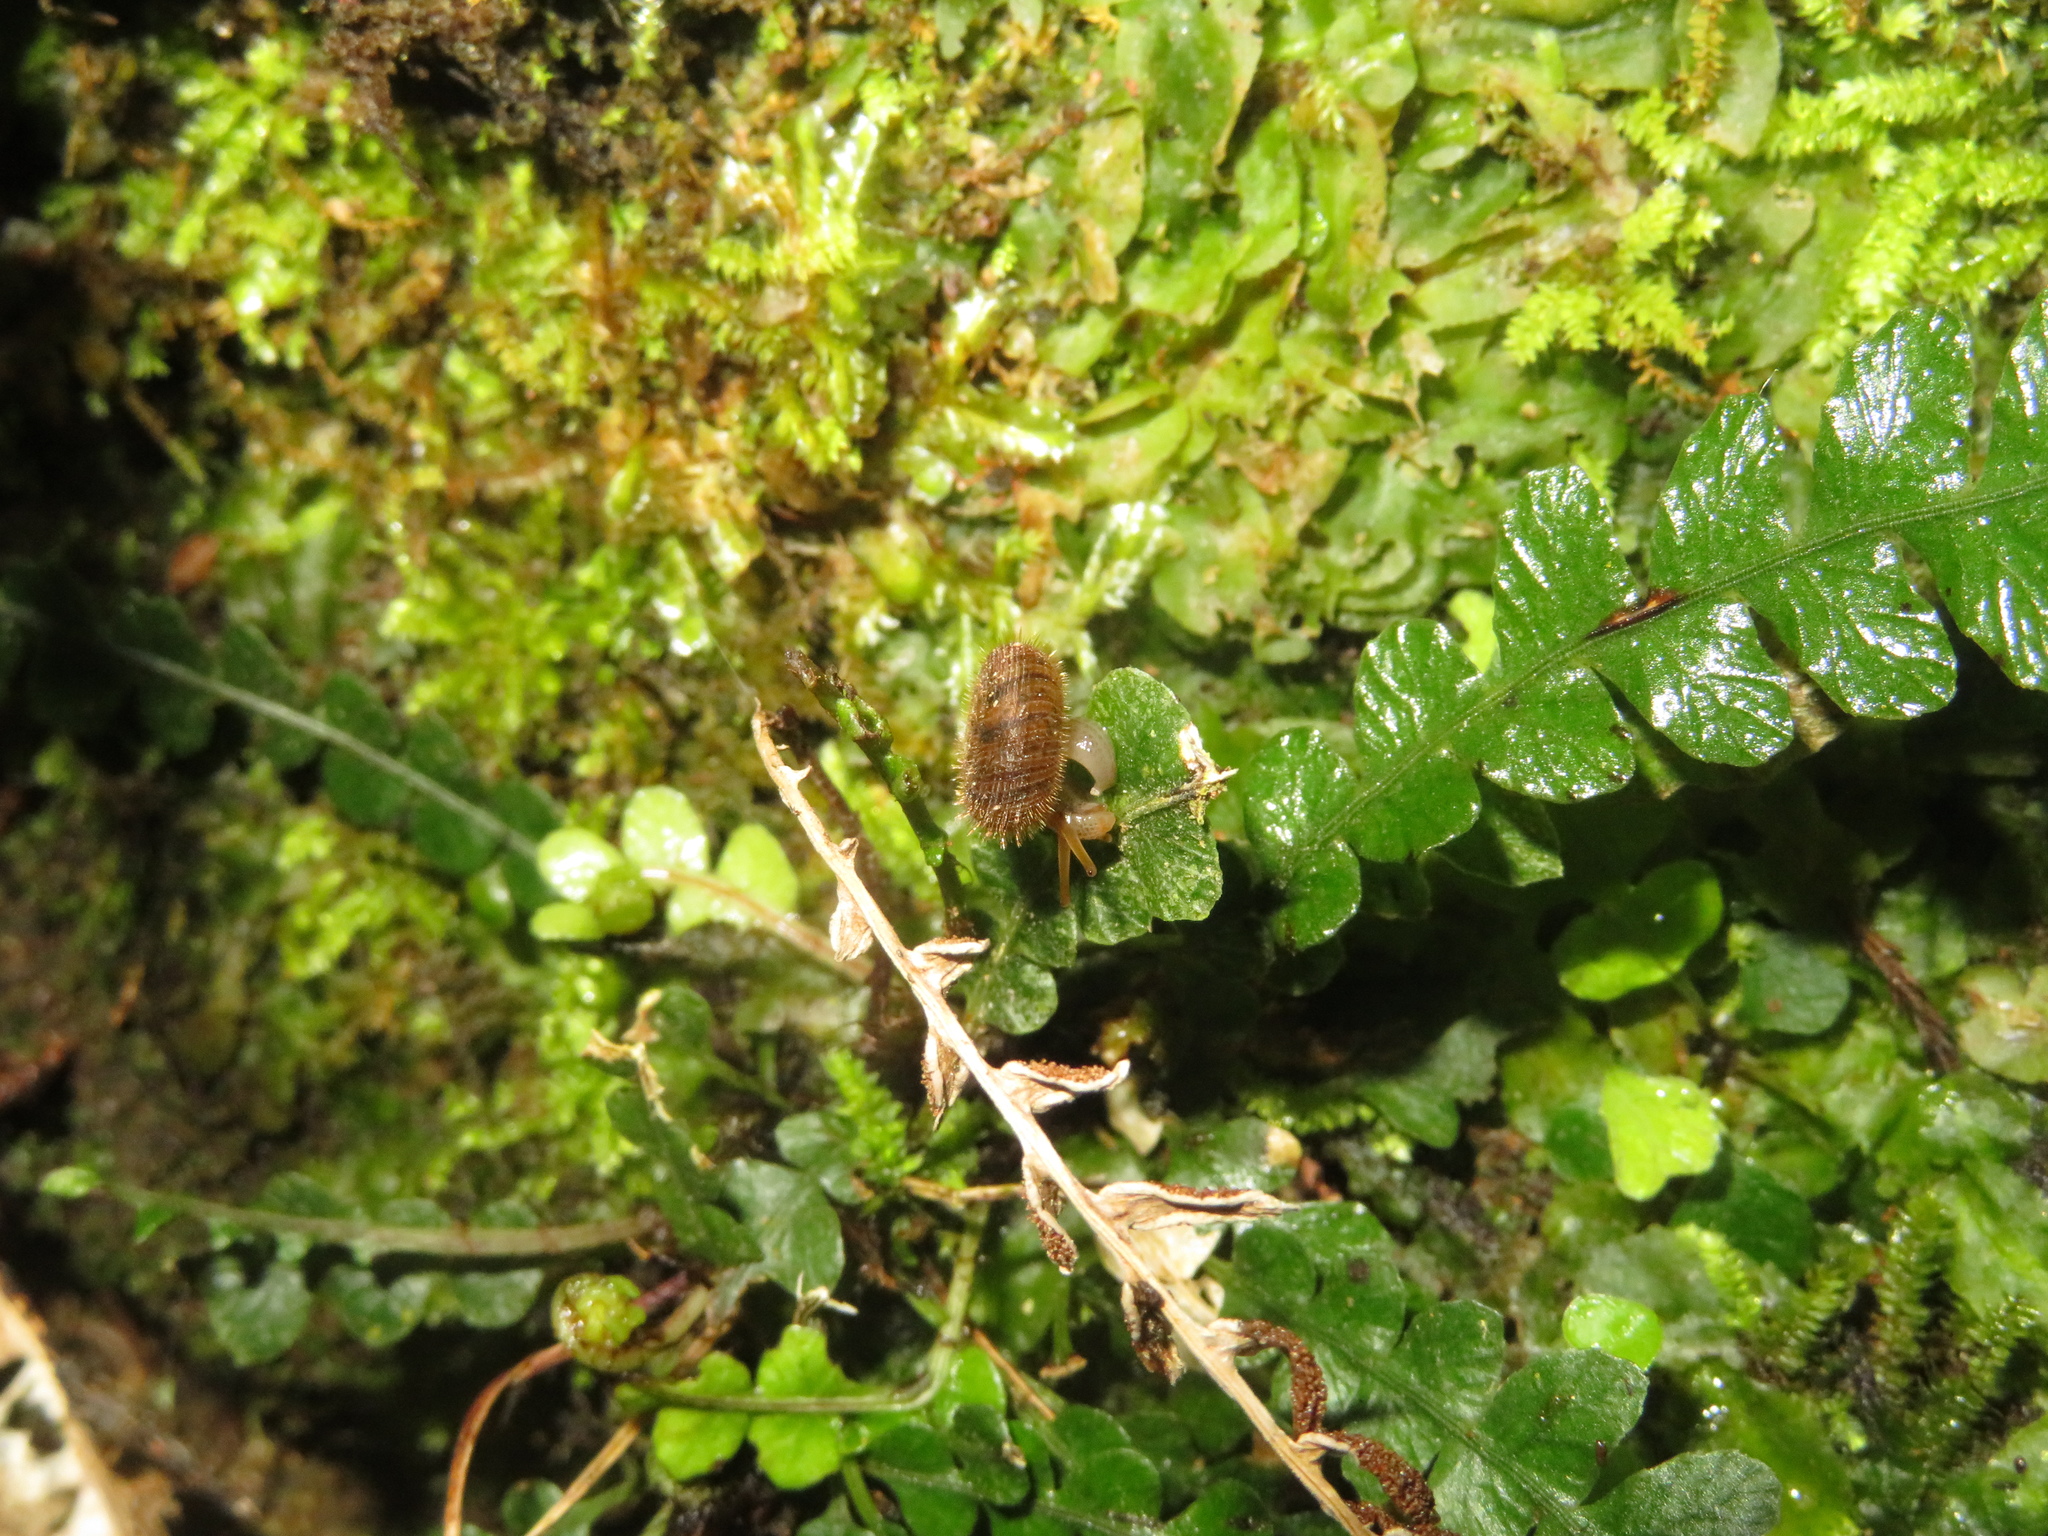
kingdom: Animalia
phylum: Mollusca
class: Gastropoda
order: Stylommatophora
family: Charopidae
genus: Suteria
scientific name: Suteria ide
